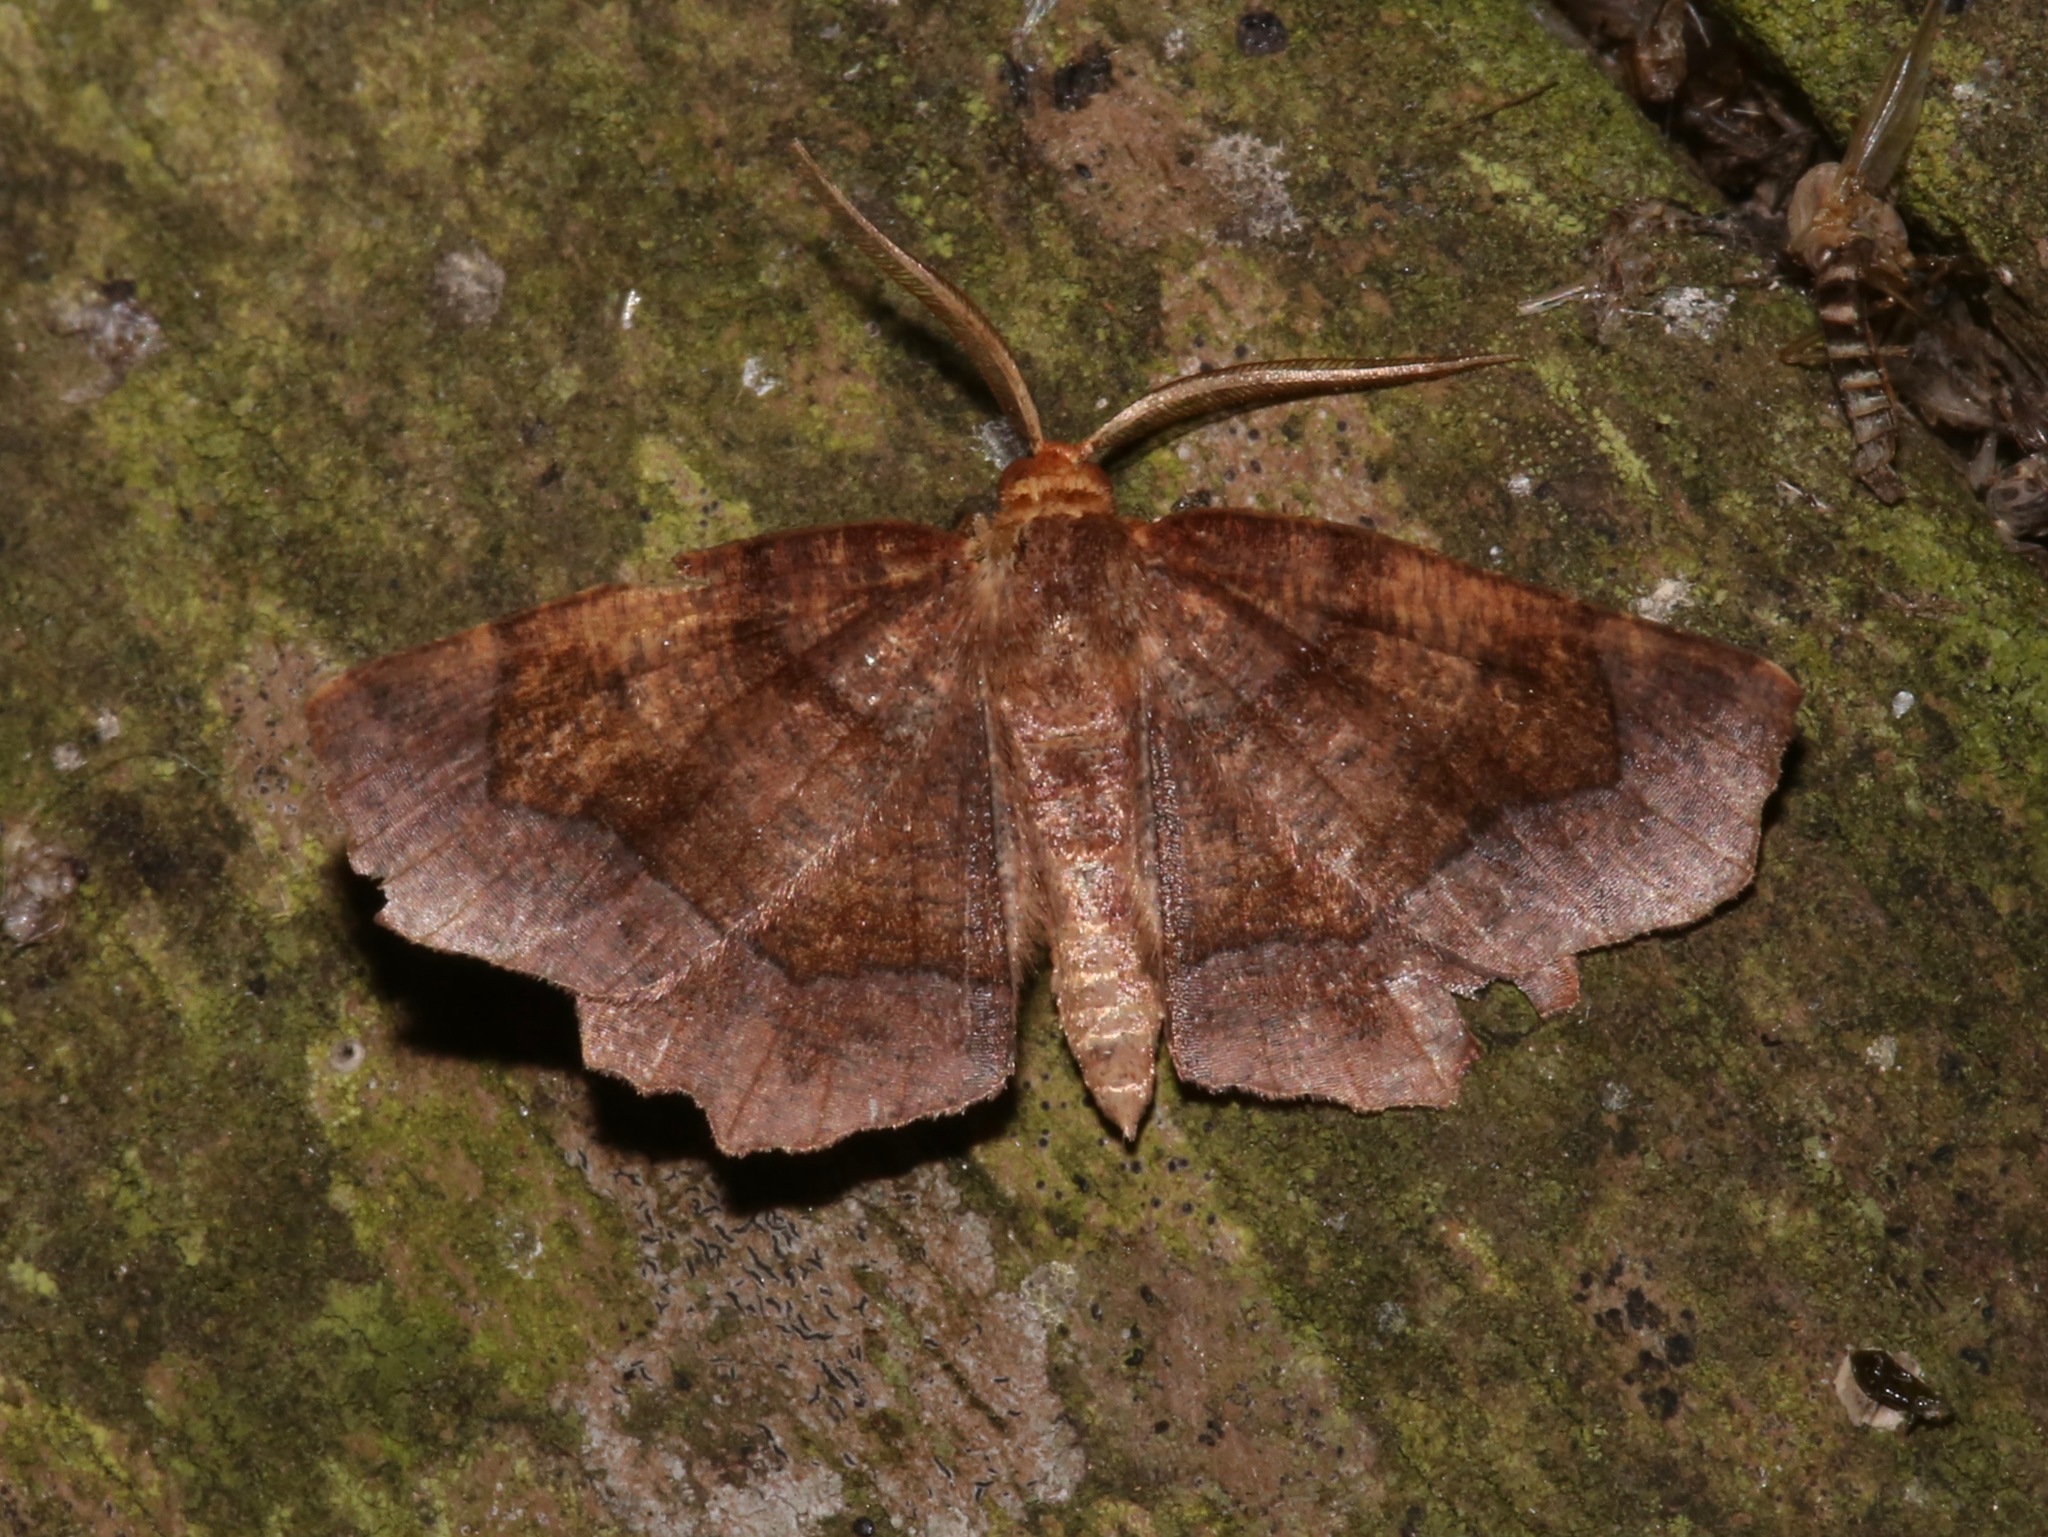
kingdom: Animalia
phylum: Arthropoda
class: Insecta
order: Lepidoptera
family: Geometridae
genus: Metarranthis
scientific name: Metarranthis homuraria
